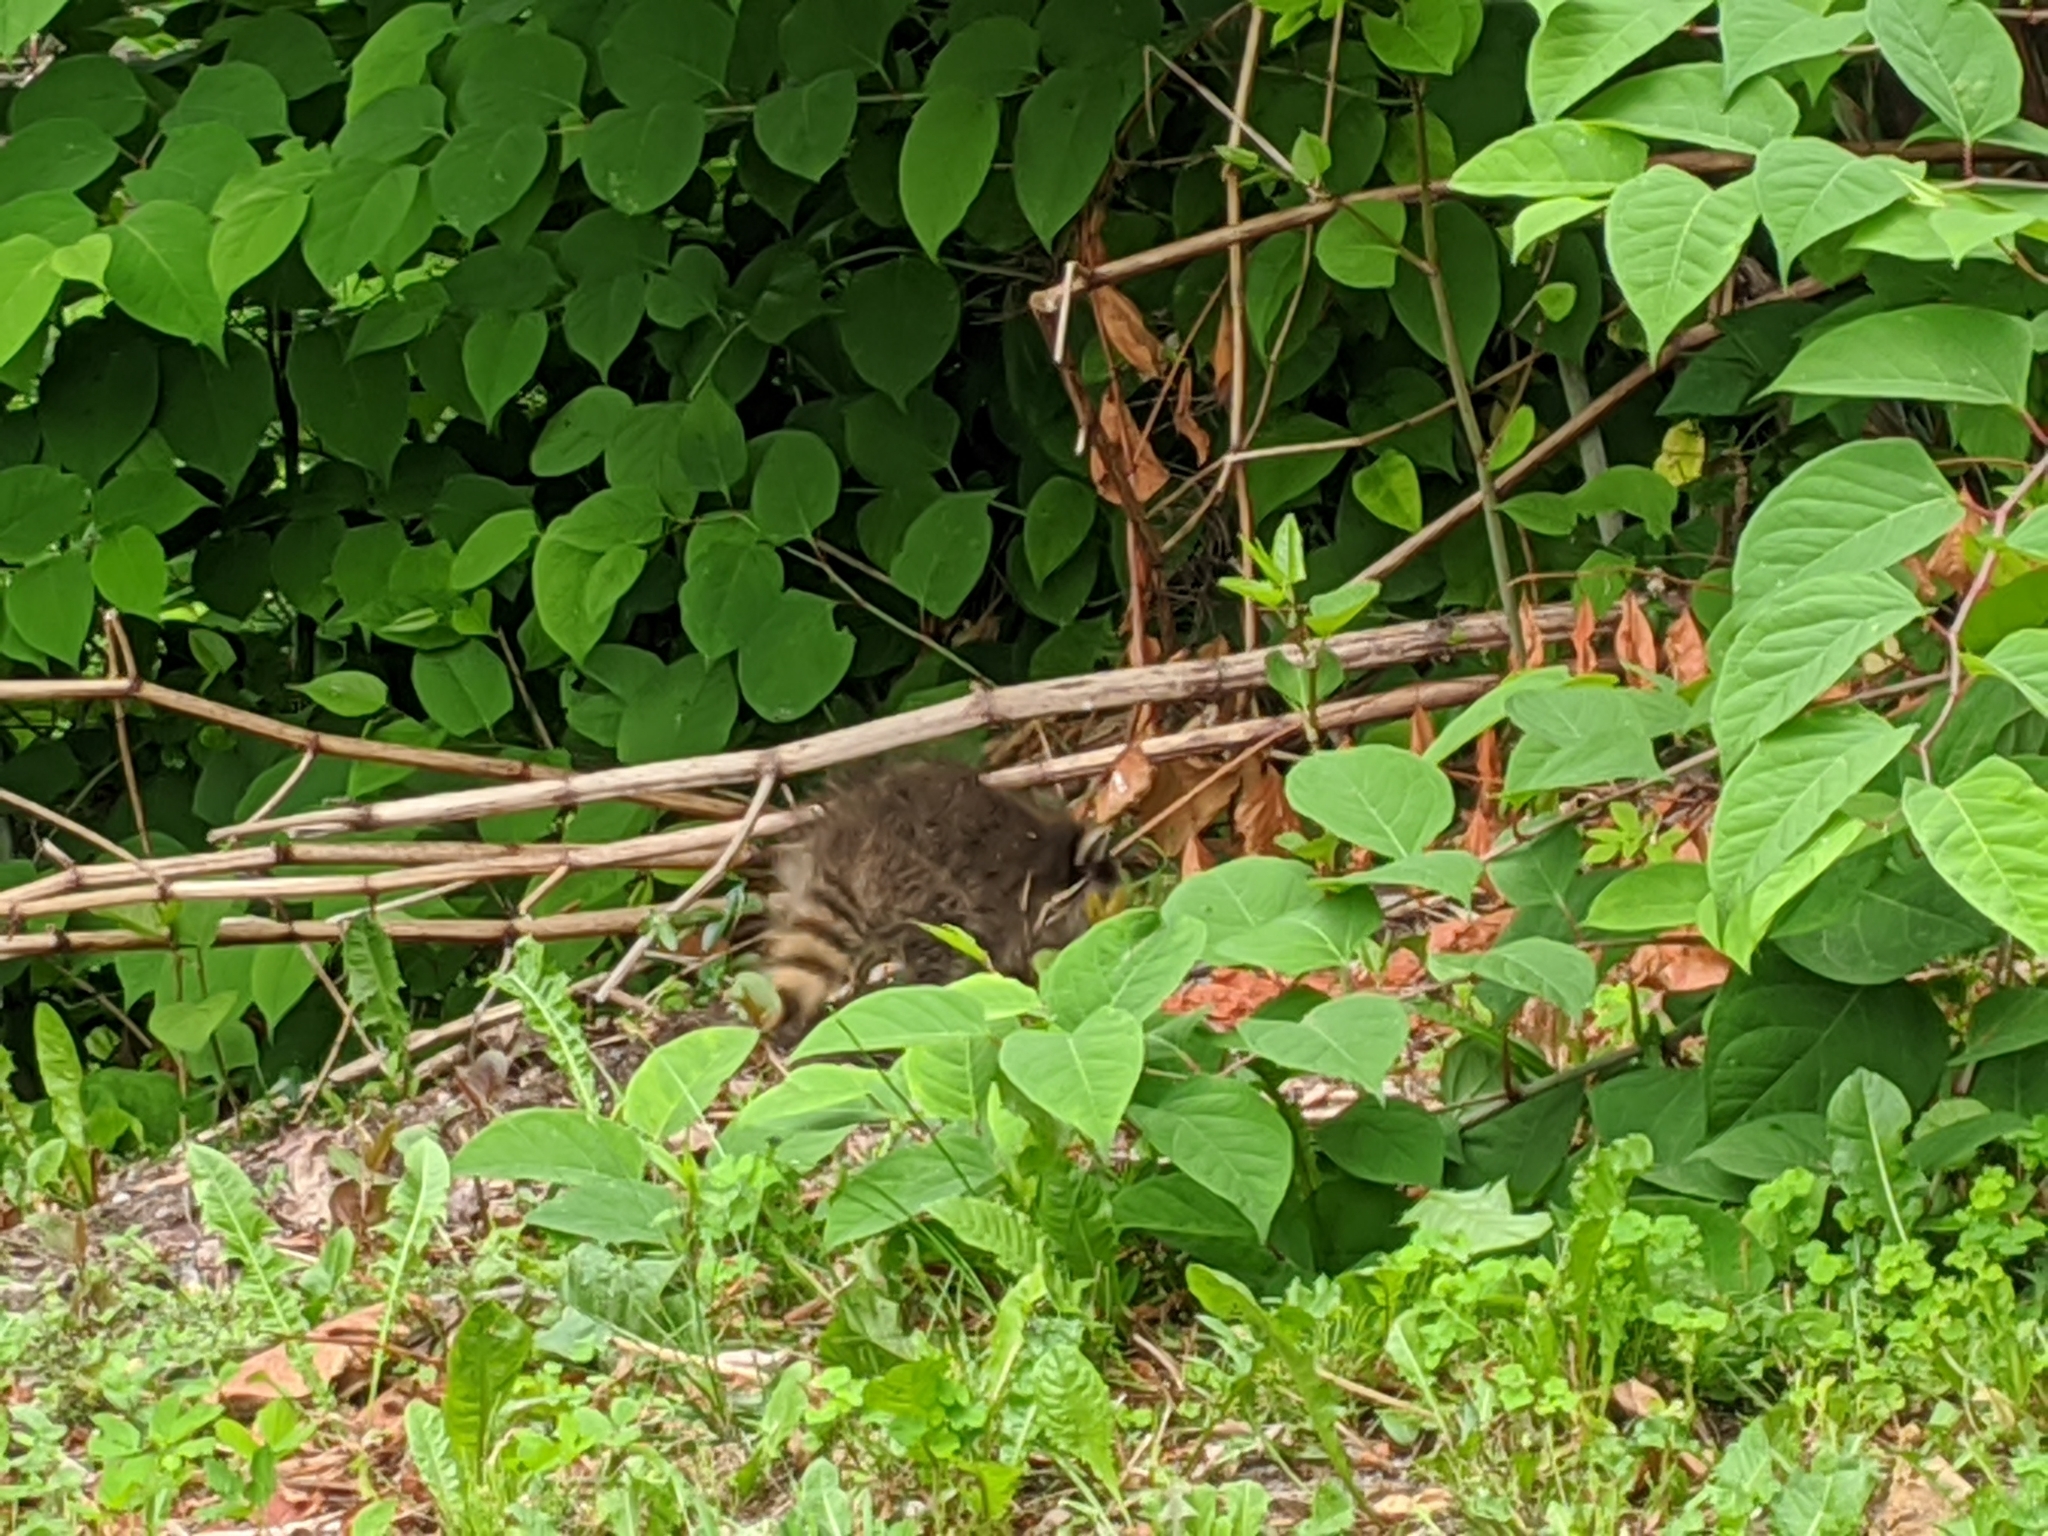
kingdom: Animalia
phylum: Chordata
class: Mammalia
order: Carnivora
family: Procyonidae
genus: Procyon
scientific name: Procyon lotor
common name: Raccoon
